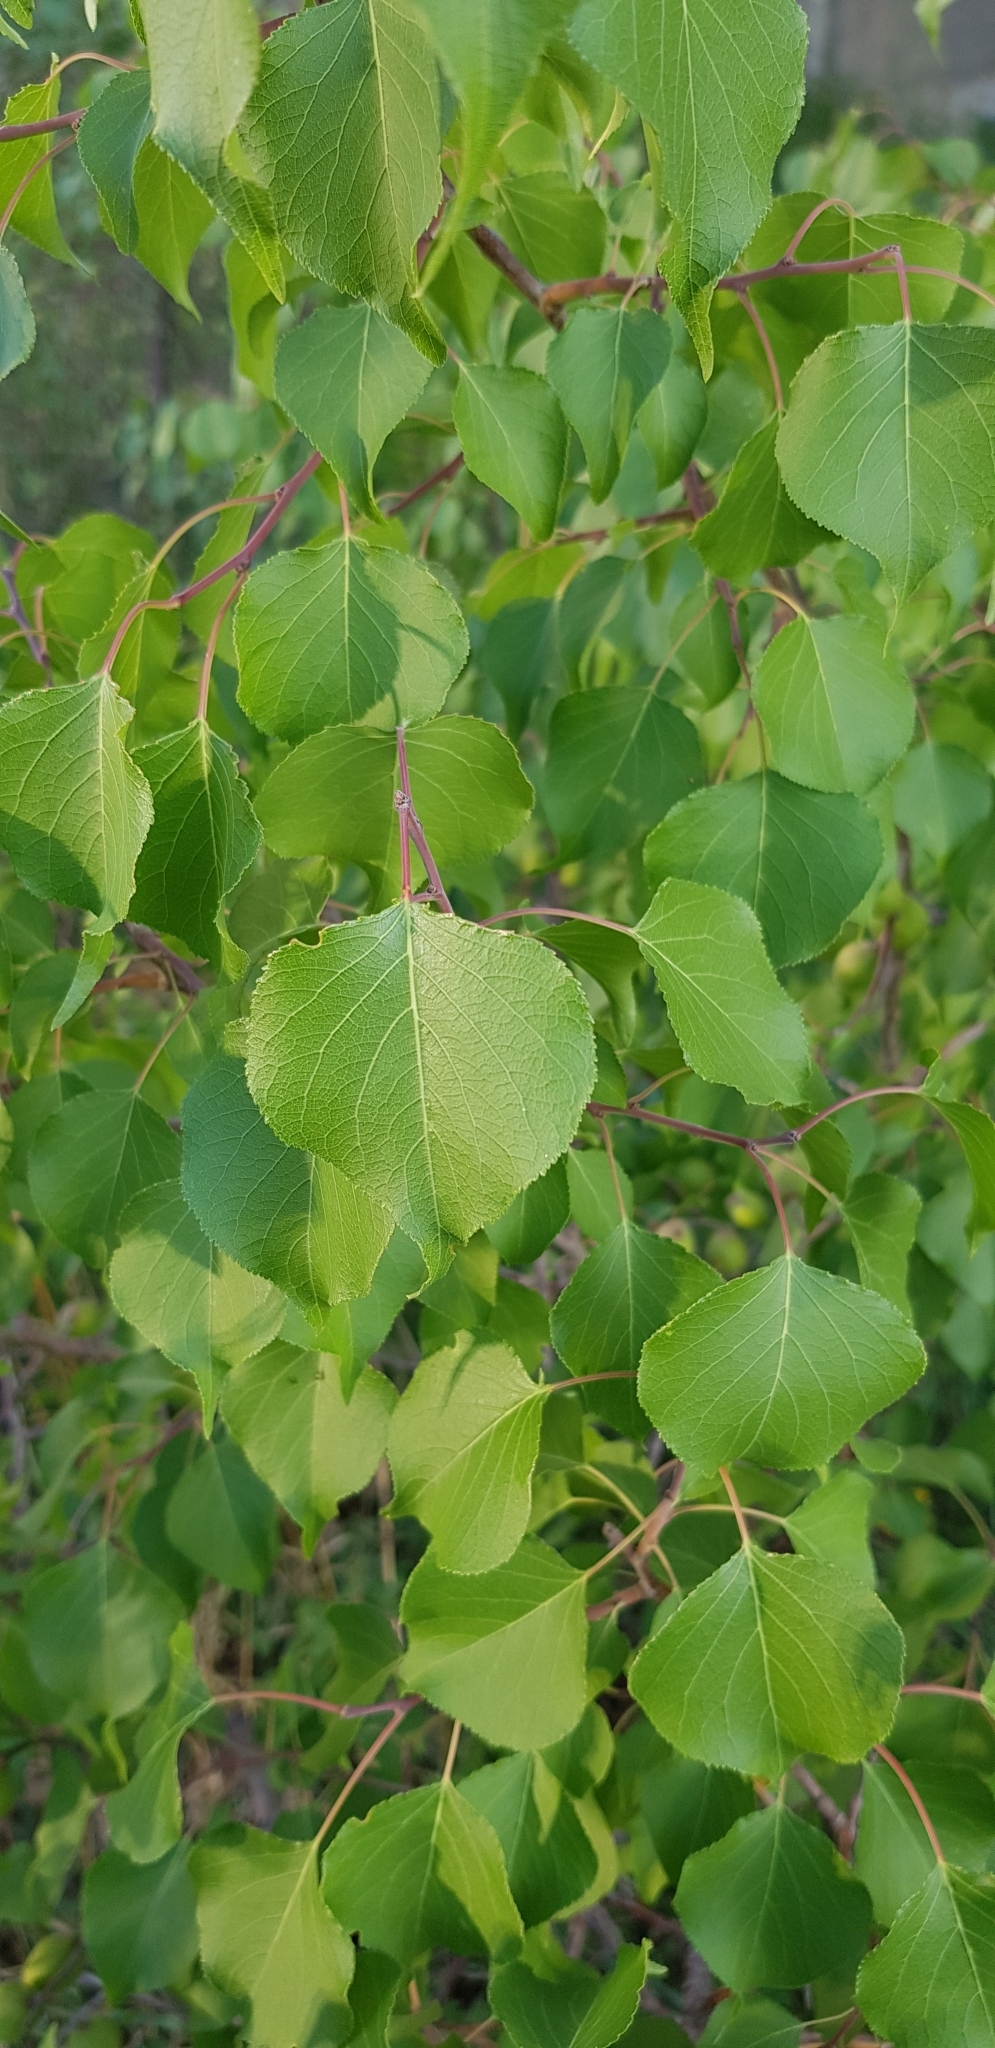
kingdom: Plantae
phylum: Tracheophyta
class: Magnoliopsida
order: Rosales
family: Rosaceae
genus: Prunus
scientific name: Prunus armeniaca
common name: Apricot
